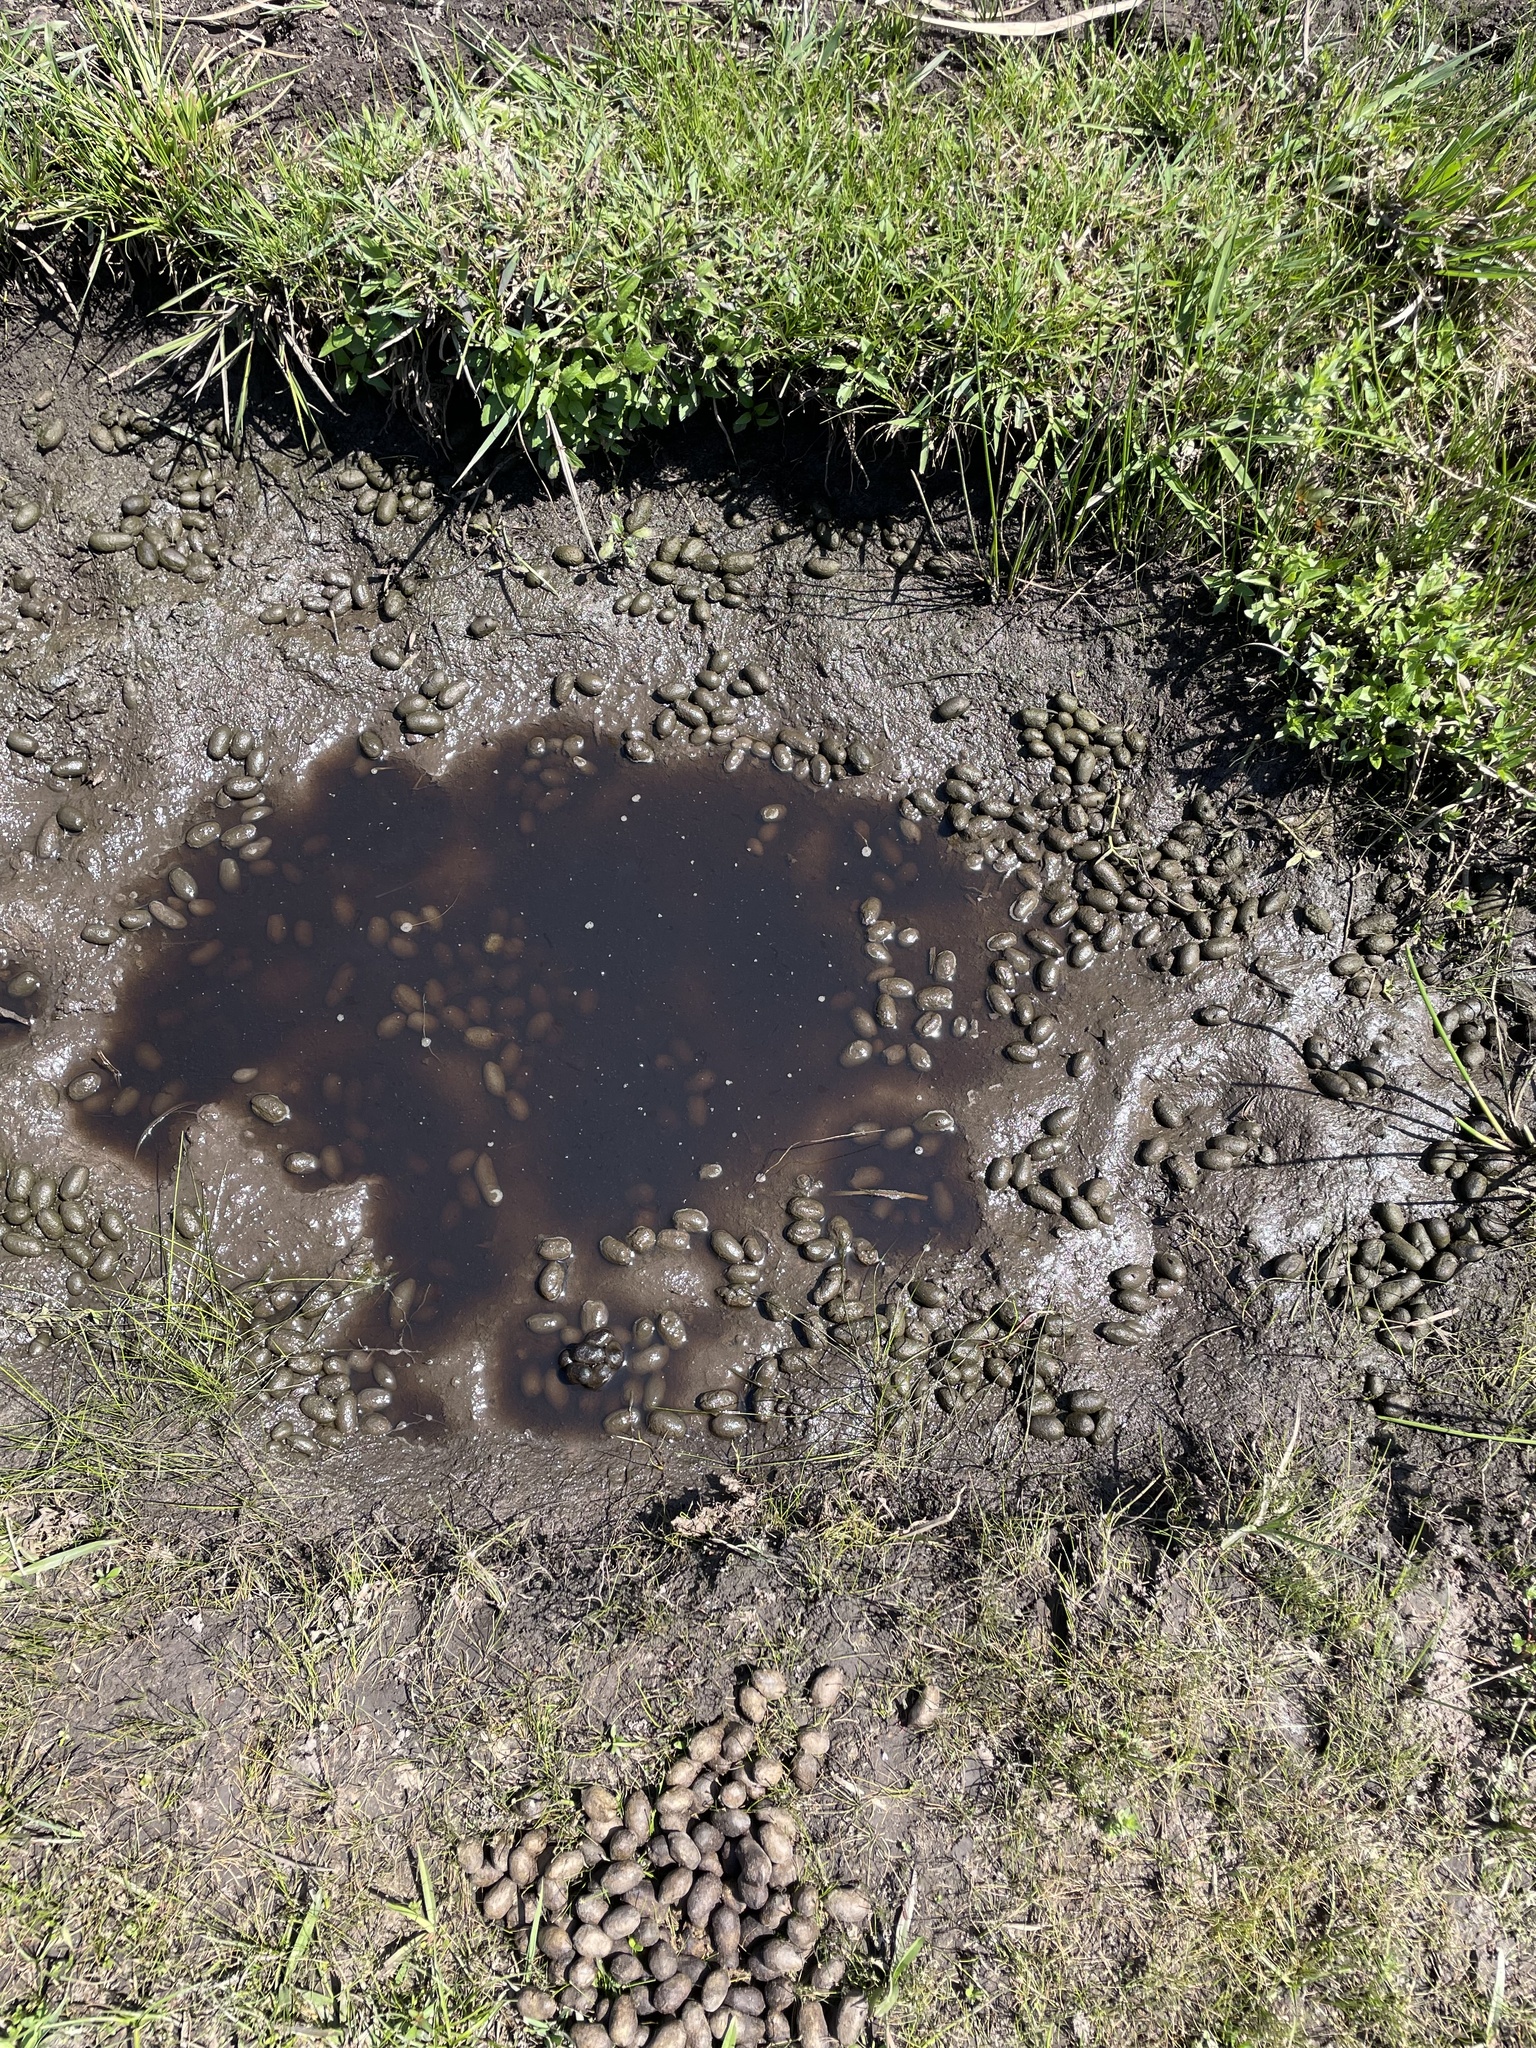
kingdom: Animalia
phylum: Chordata
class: Mammalia
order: Rodentia
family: Caviidae
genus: Hydrochoerus
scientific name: Hydrochoerus hydrochaeris
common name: Capybara
